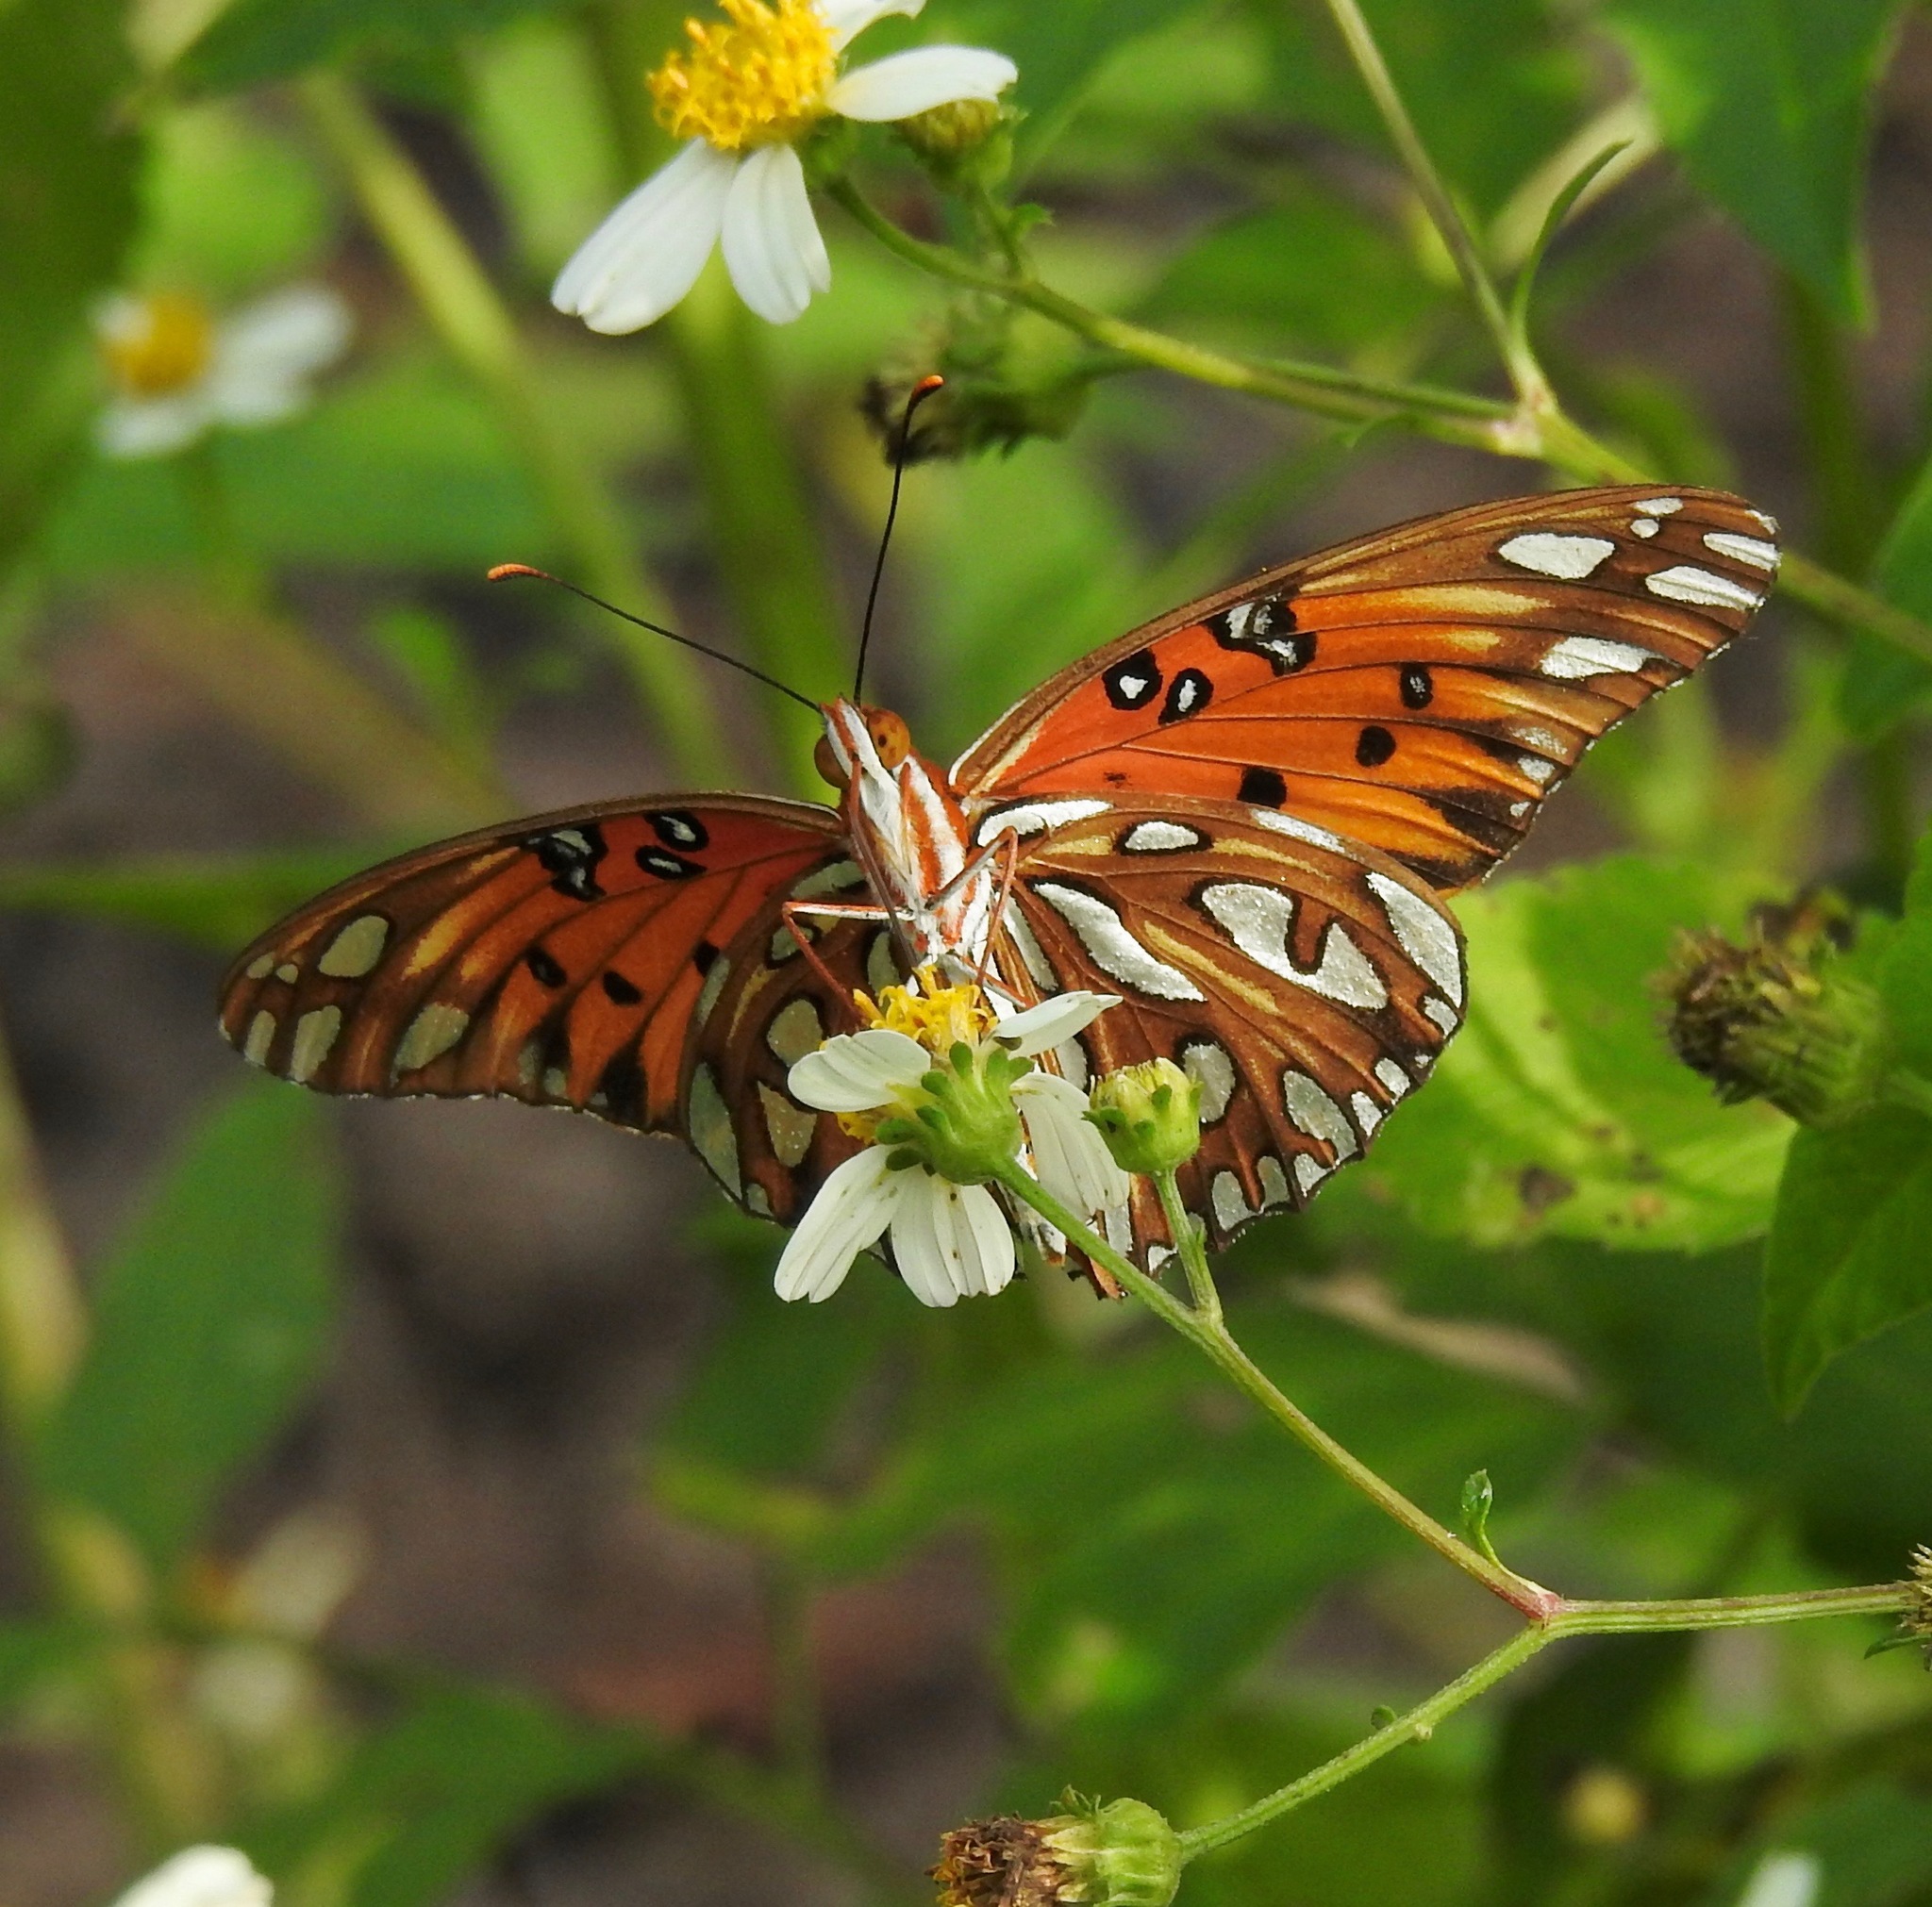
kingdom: Animalia
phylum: Arthropoda
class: Insecta
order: Lepidoptera
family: Nymphalidae
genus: Dione
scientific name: Dione vanillae
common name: Gulf fritillary
